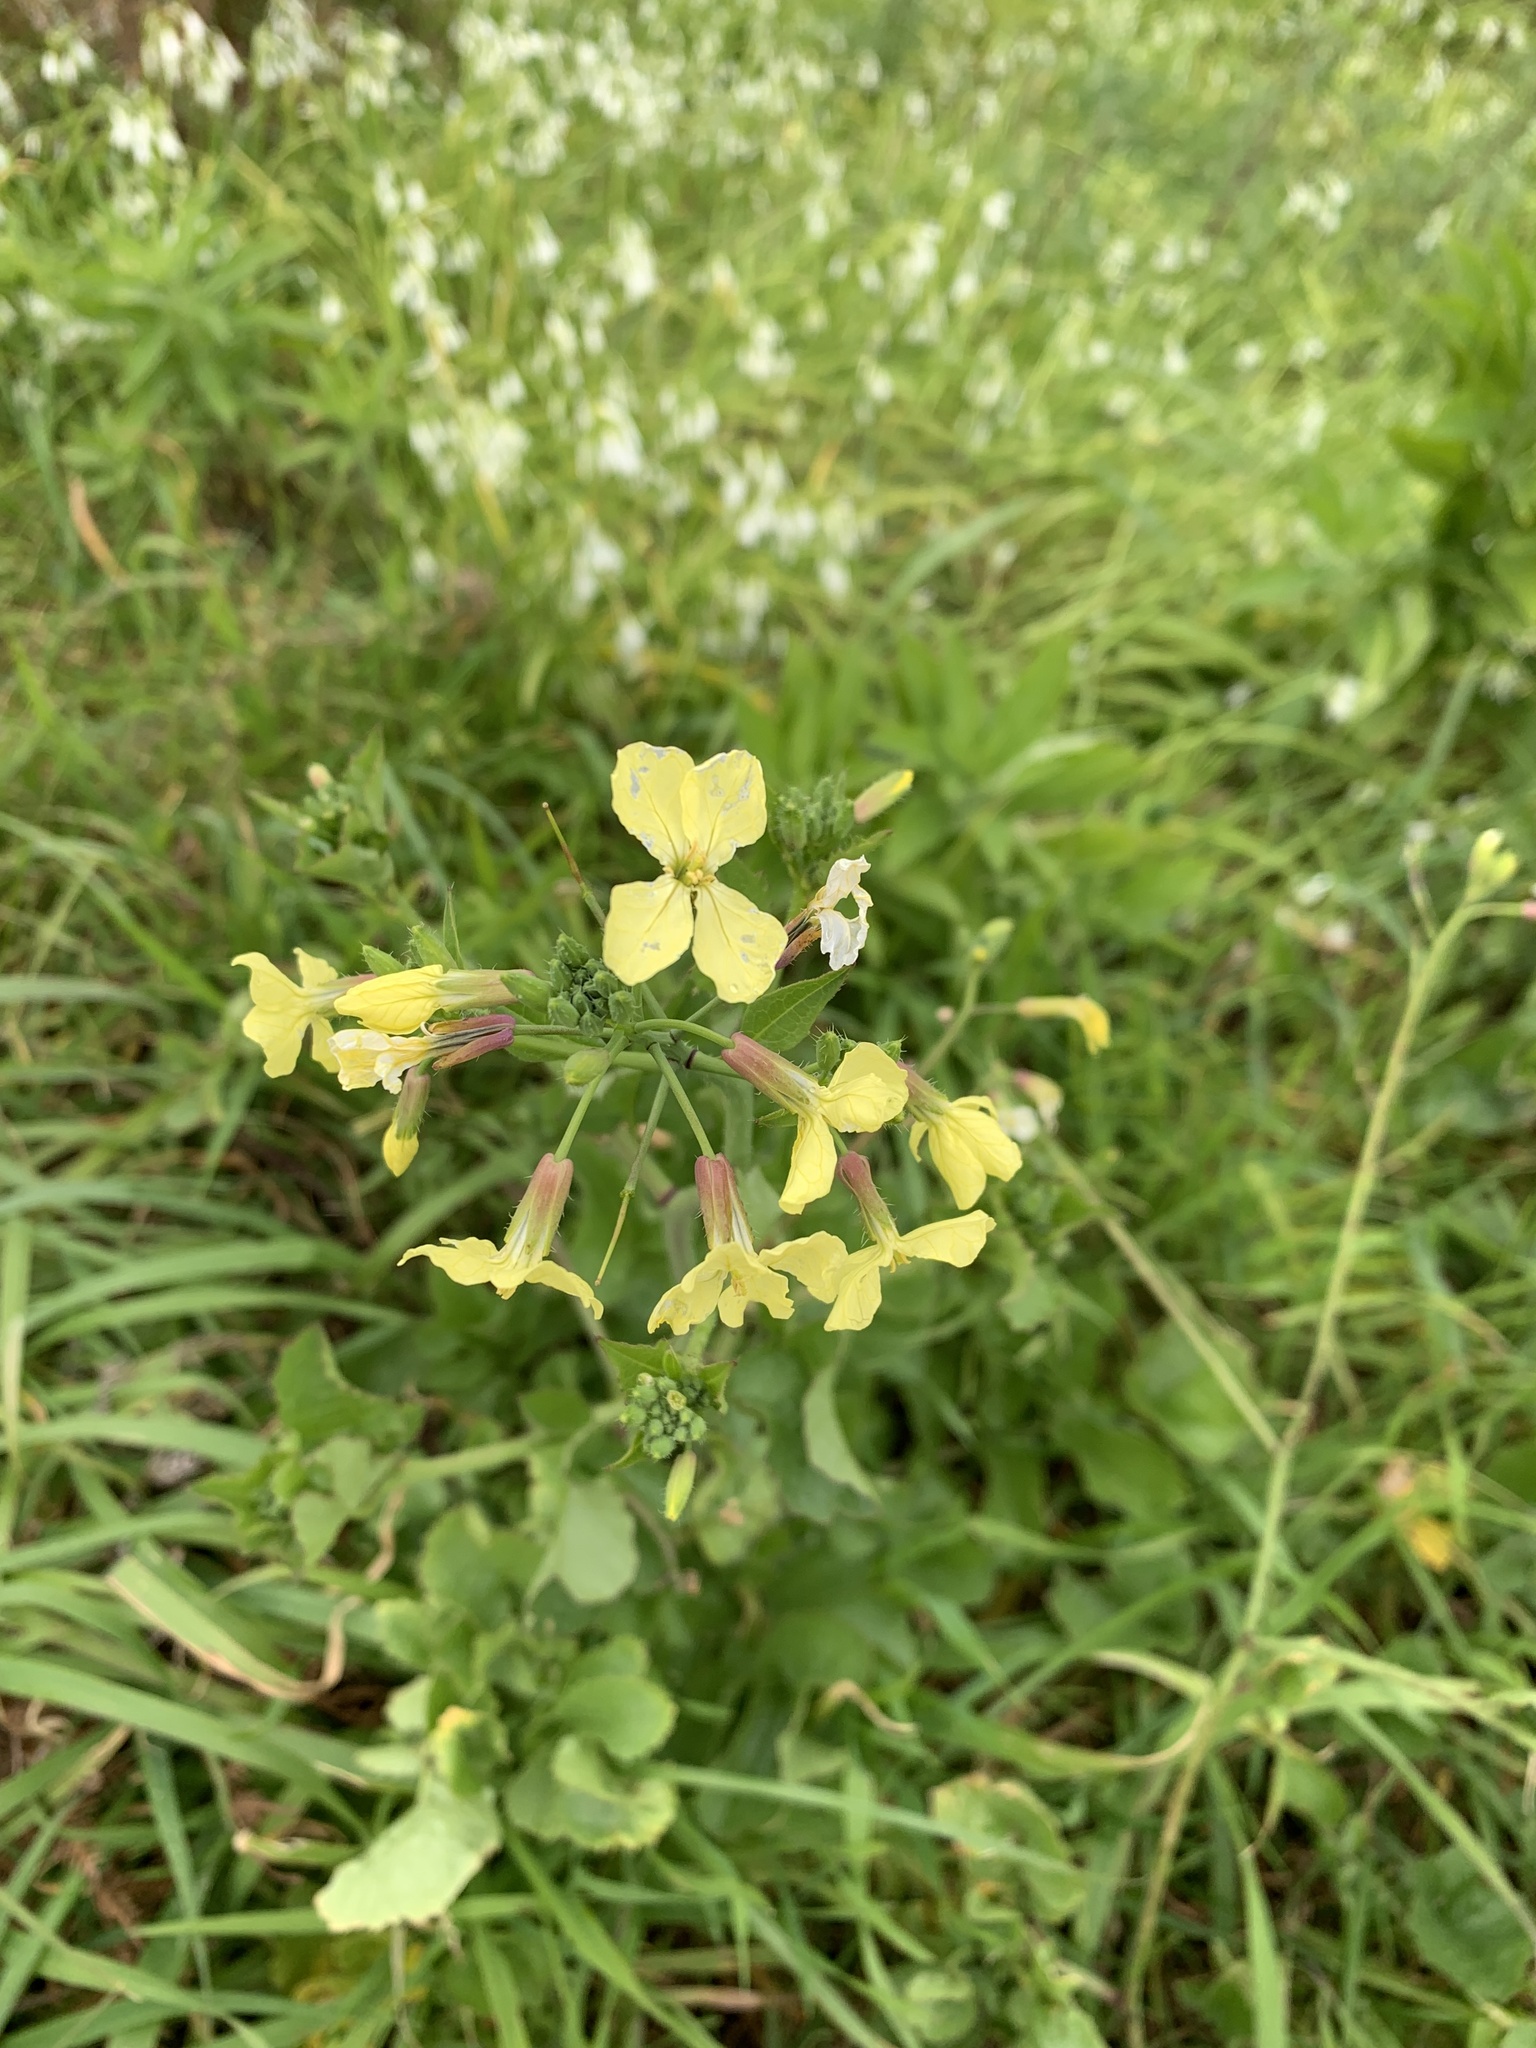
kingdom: Plantae
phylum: Tracheophyta
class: Magnoliopsida
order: Brassicales
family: Brassicaceae
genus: Raphanus
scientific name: Raphanus raphanistrum
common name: Wild radish
